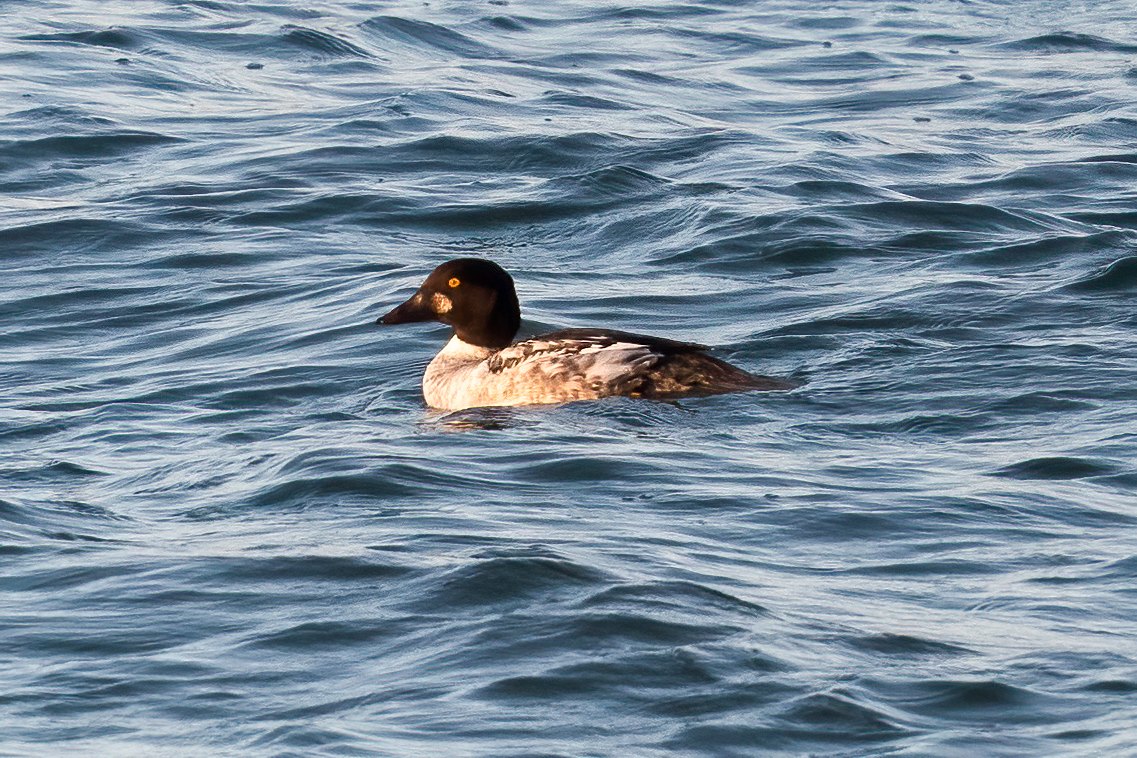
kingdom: Animalia
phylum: Chordata
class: Aves
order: Anseriformes
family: Anatidae
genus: Bucephala
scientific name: Bucephala clangula
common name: Common goldeneye
